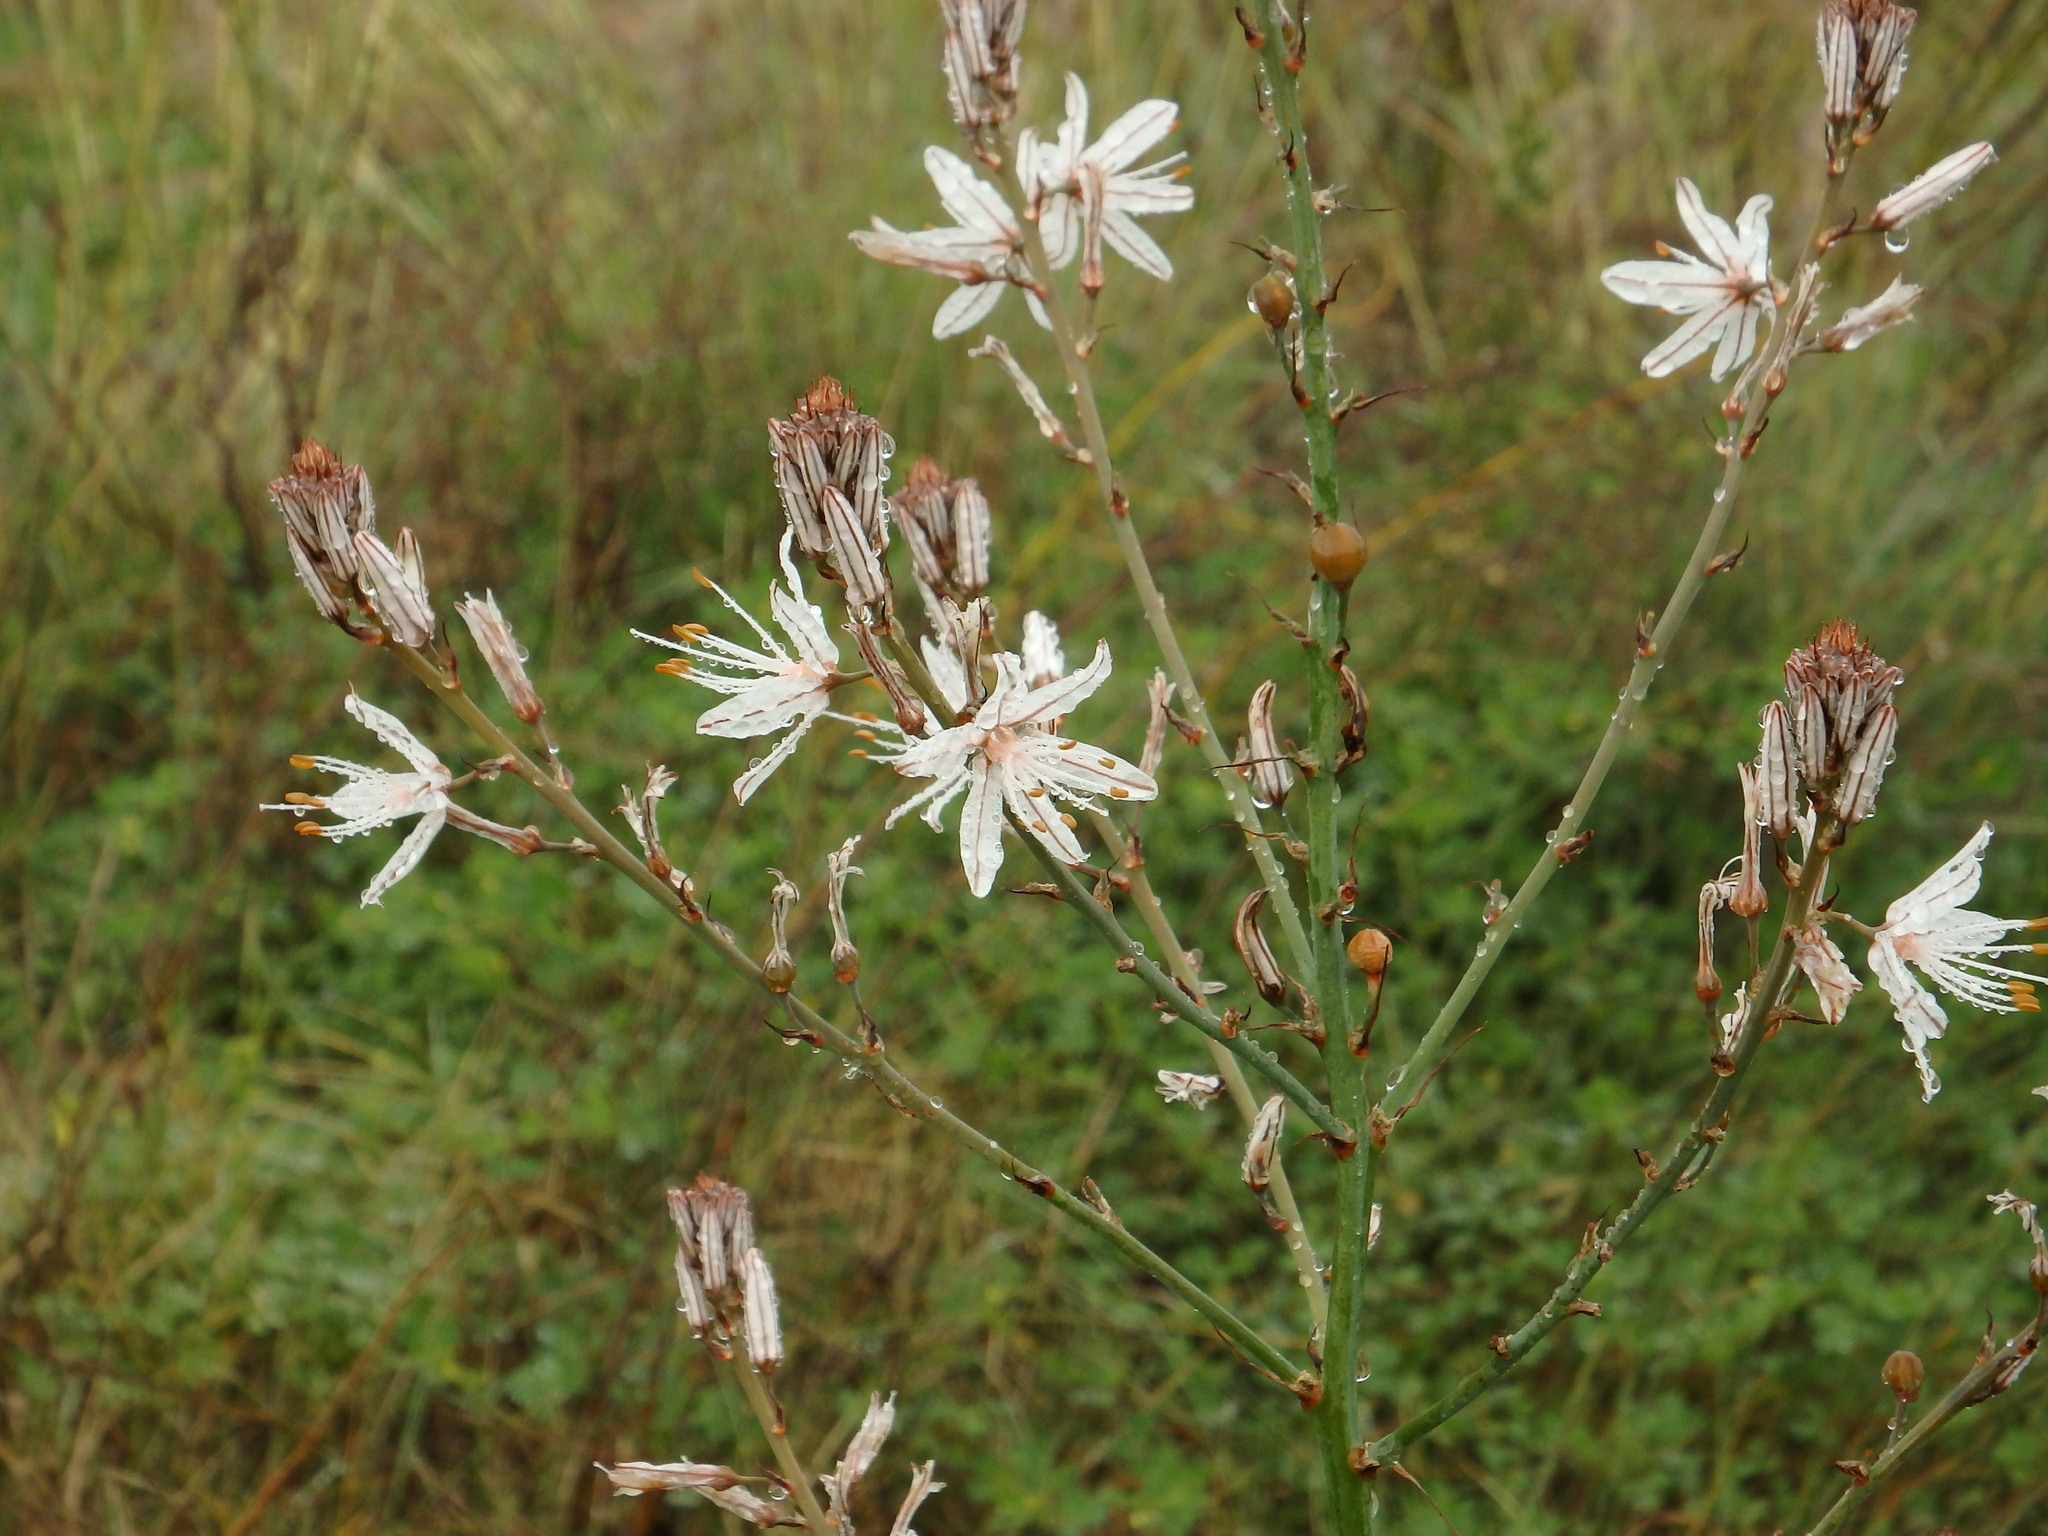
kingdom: Plantae
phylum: Tracheophyta
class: Liliopsida
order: Asparagales
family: Asphodelaceae
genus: Asphodelus
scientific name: Asphodelus ramosus
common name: Silverrod
